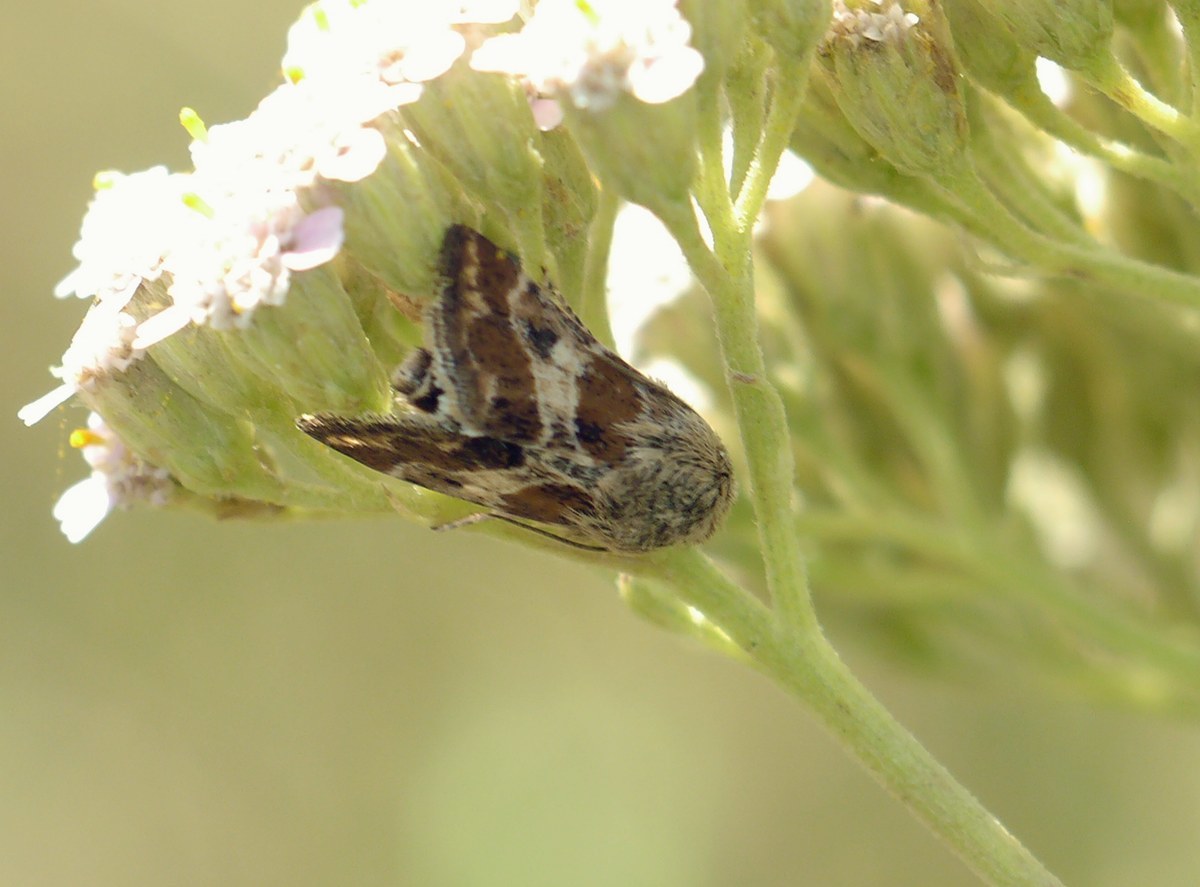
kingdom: Animalia
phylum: Arthropoda
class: Insecta
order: Lepidoptera
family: Noctuidae
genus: Schinia
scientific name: Schinia cognata
